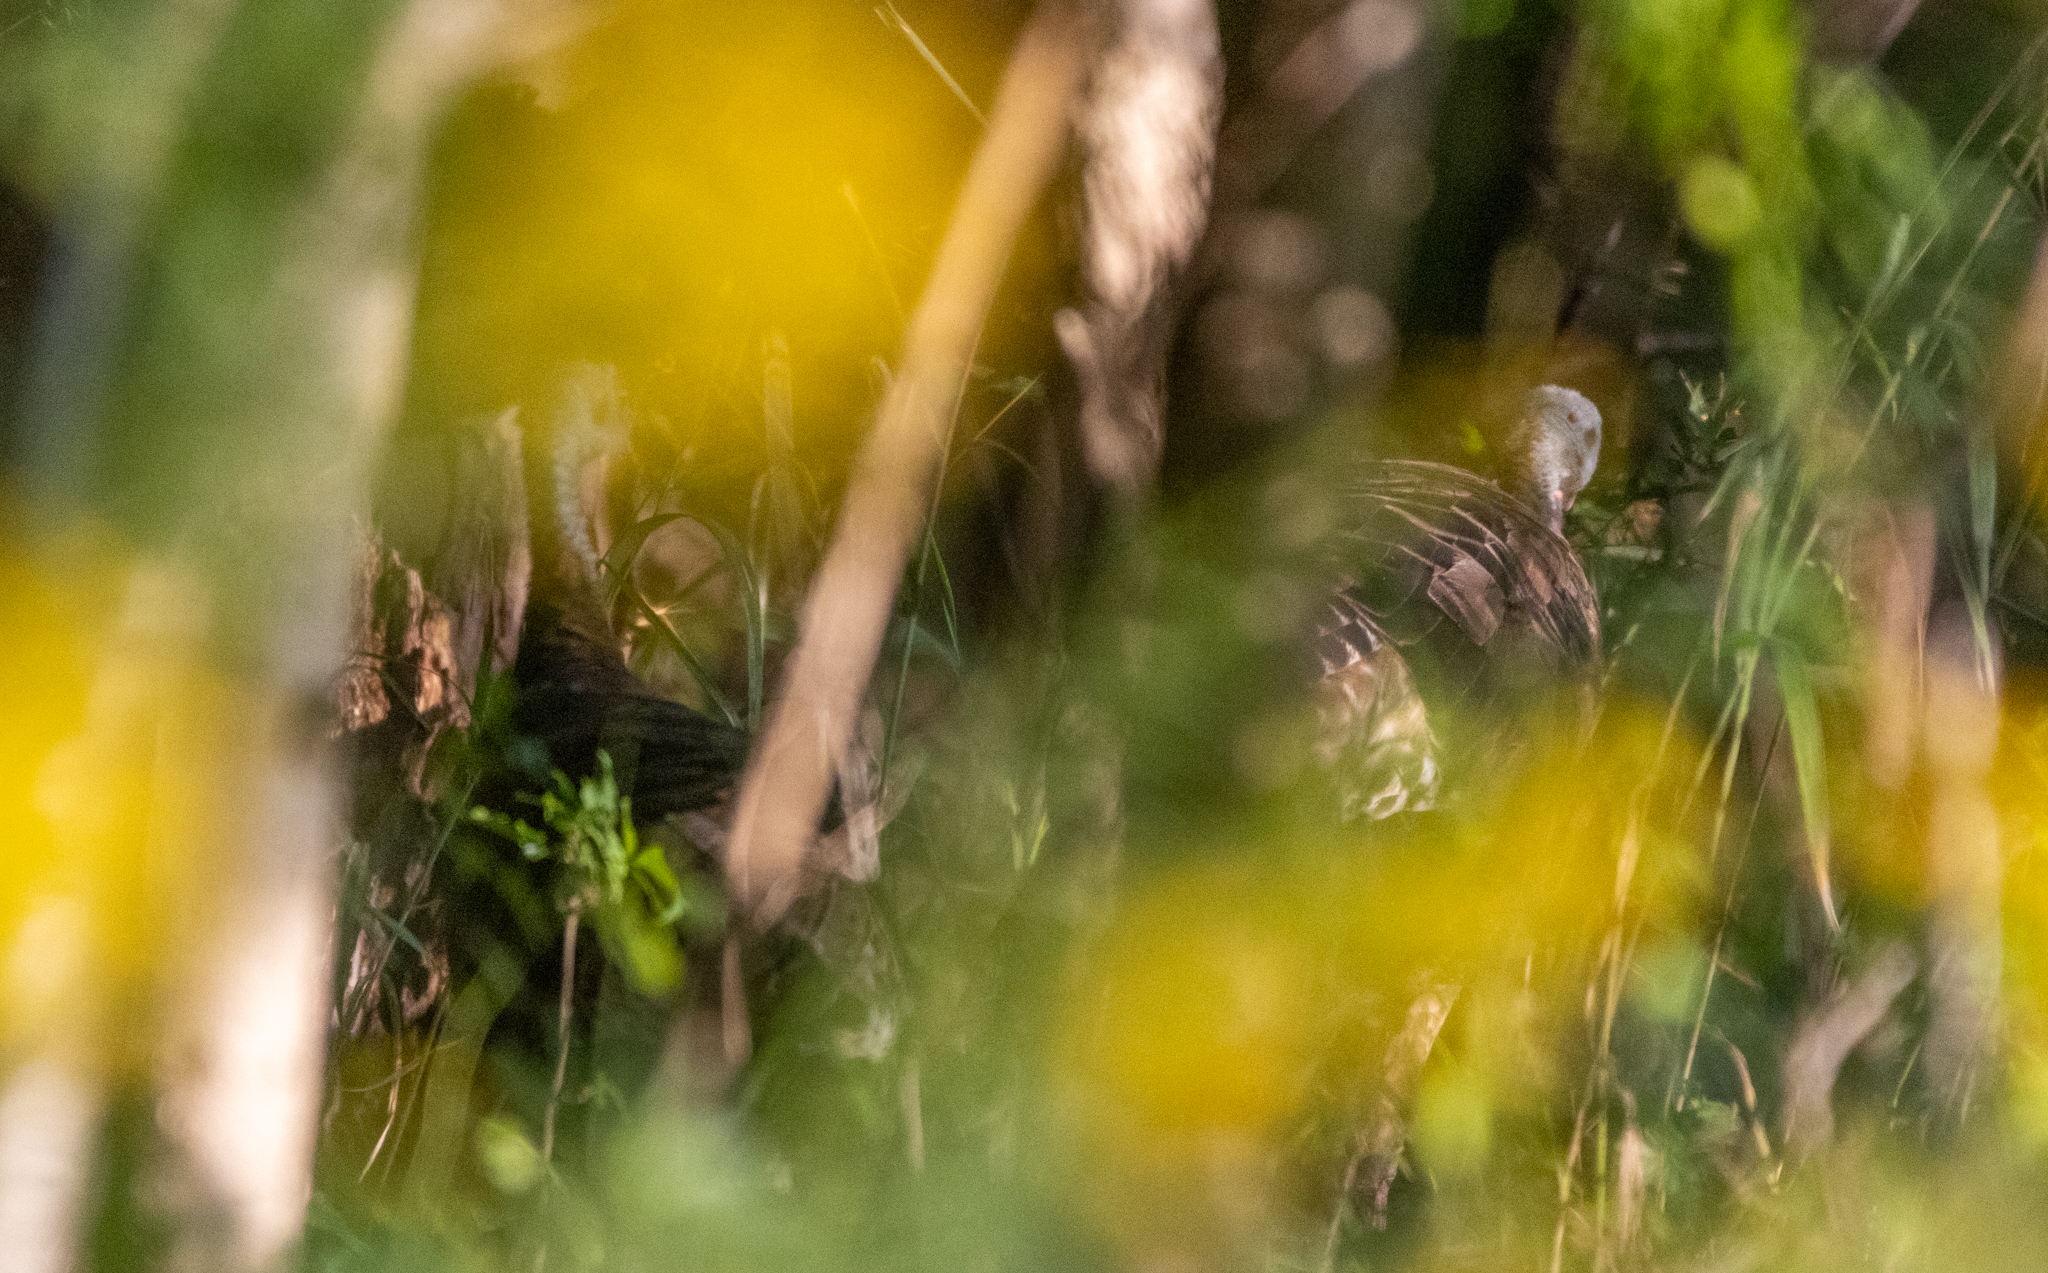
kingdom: Animalia
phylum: Chordata
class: Aves
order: Galliformes
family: Phasianidae
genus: Meleagris
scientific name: Meleagris gallopavo
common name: Wild turkey
